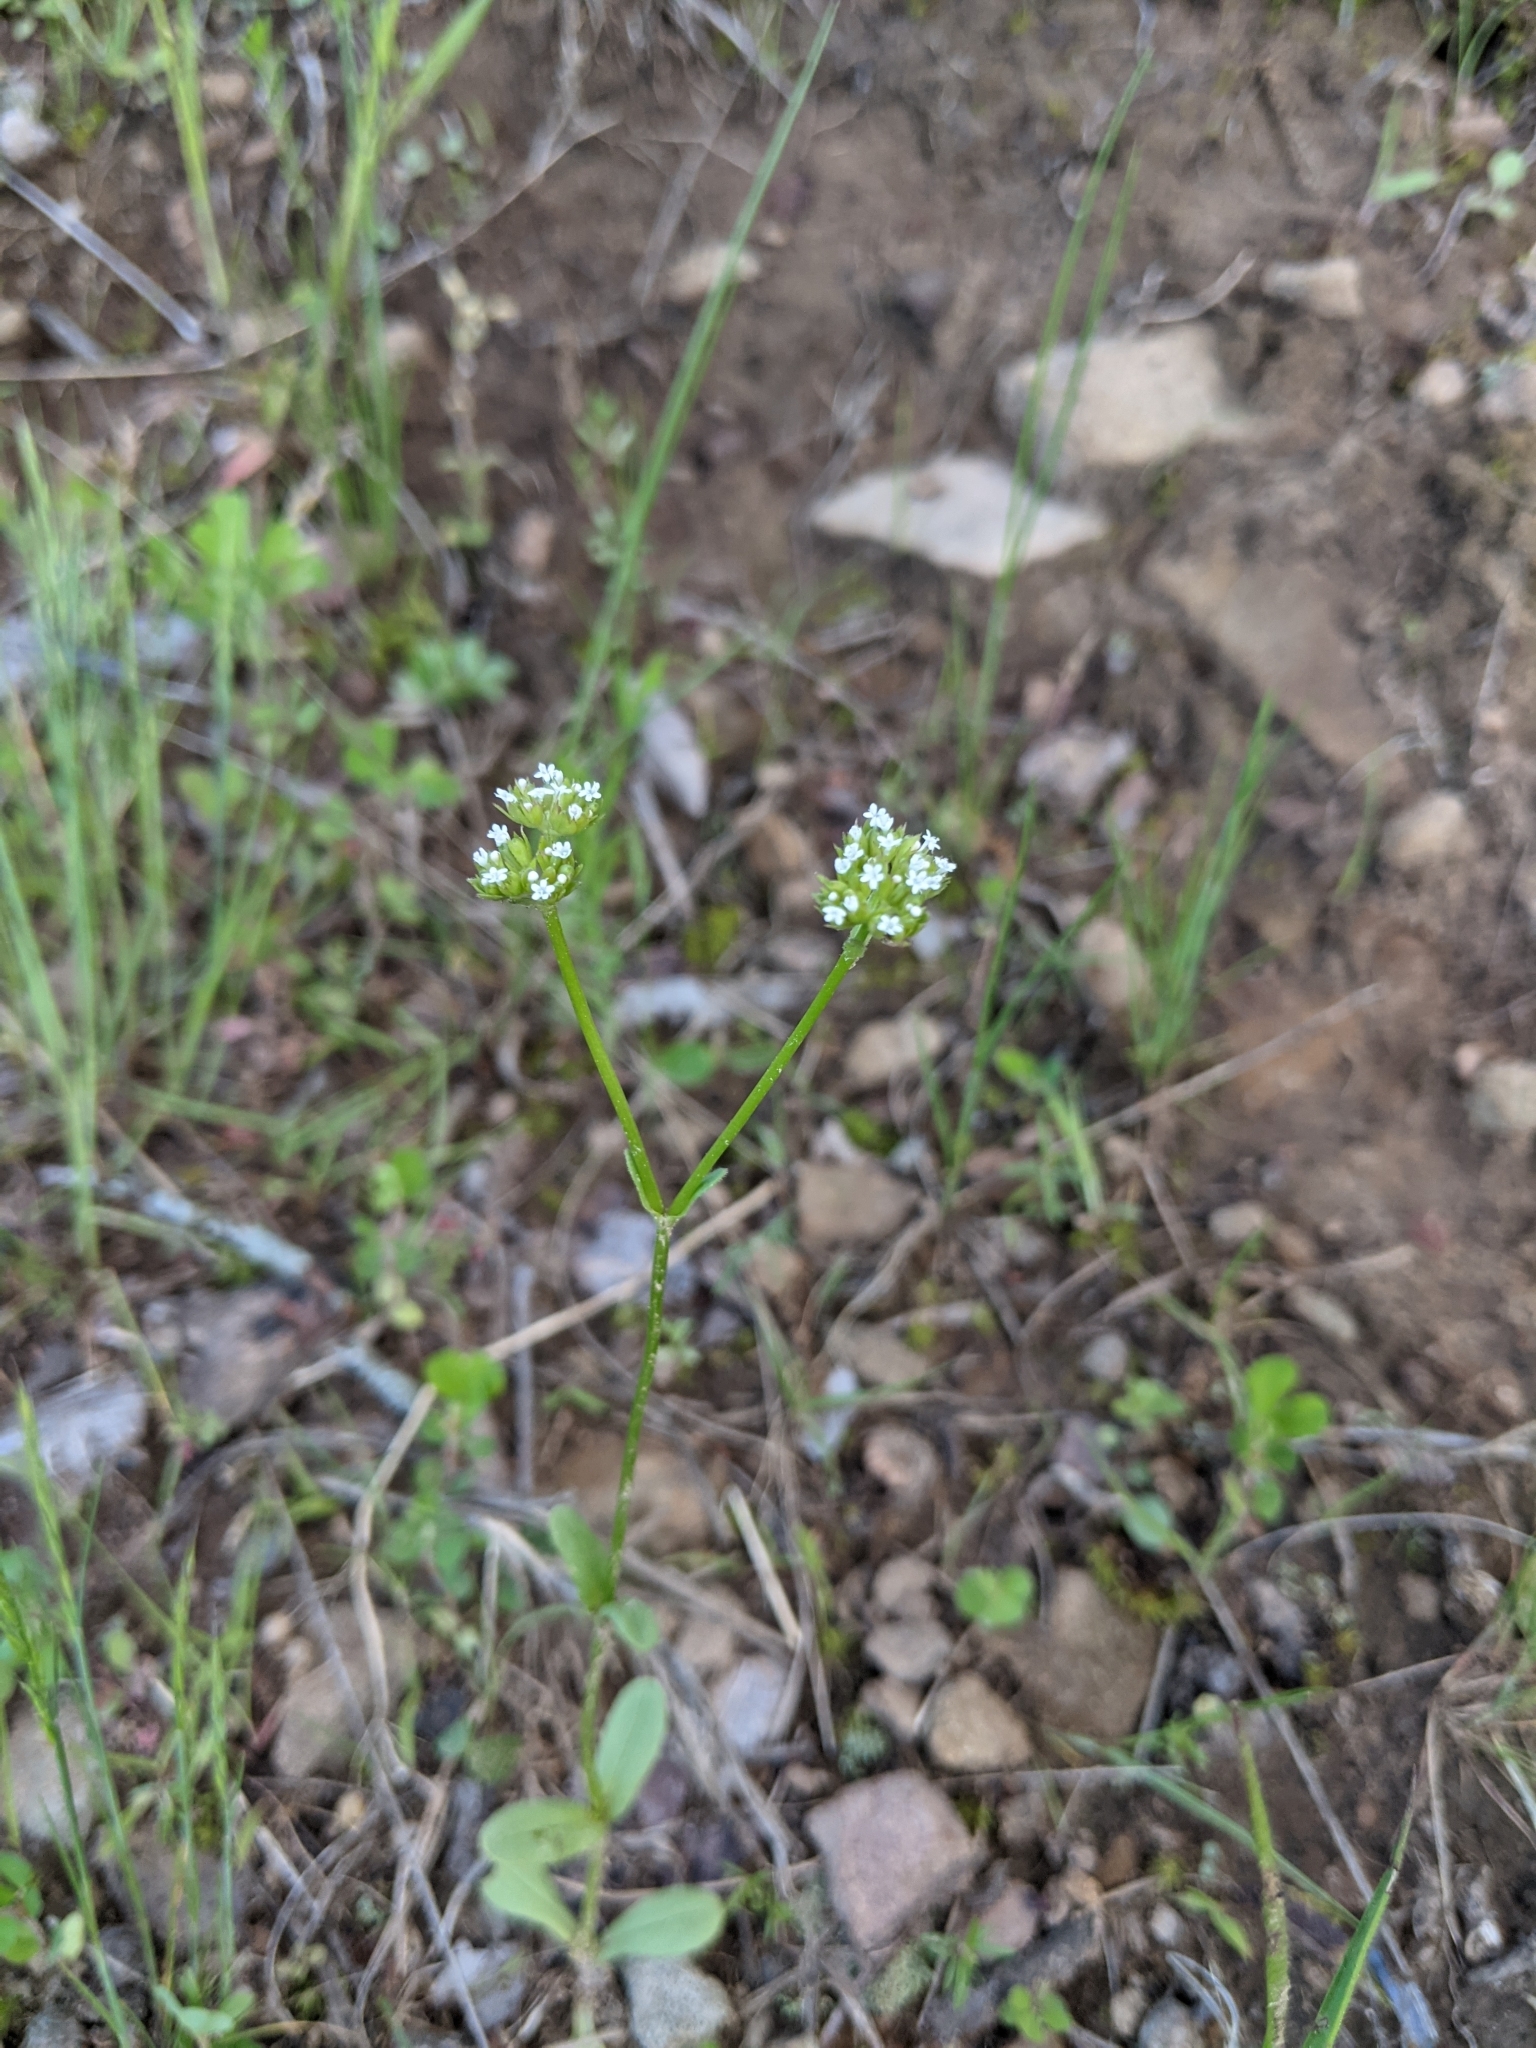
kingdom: Plantae
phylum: Tracheophyta
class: Magnoliopsida
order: Dipsacales
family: Caprifoliaceae
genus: Valerianella
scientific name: Valerianella radiata
